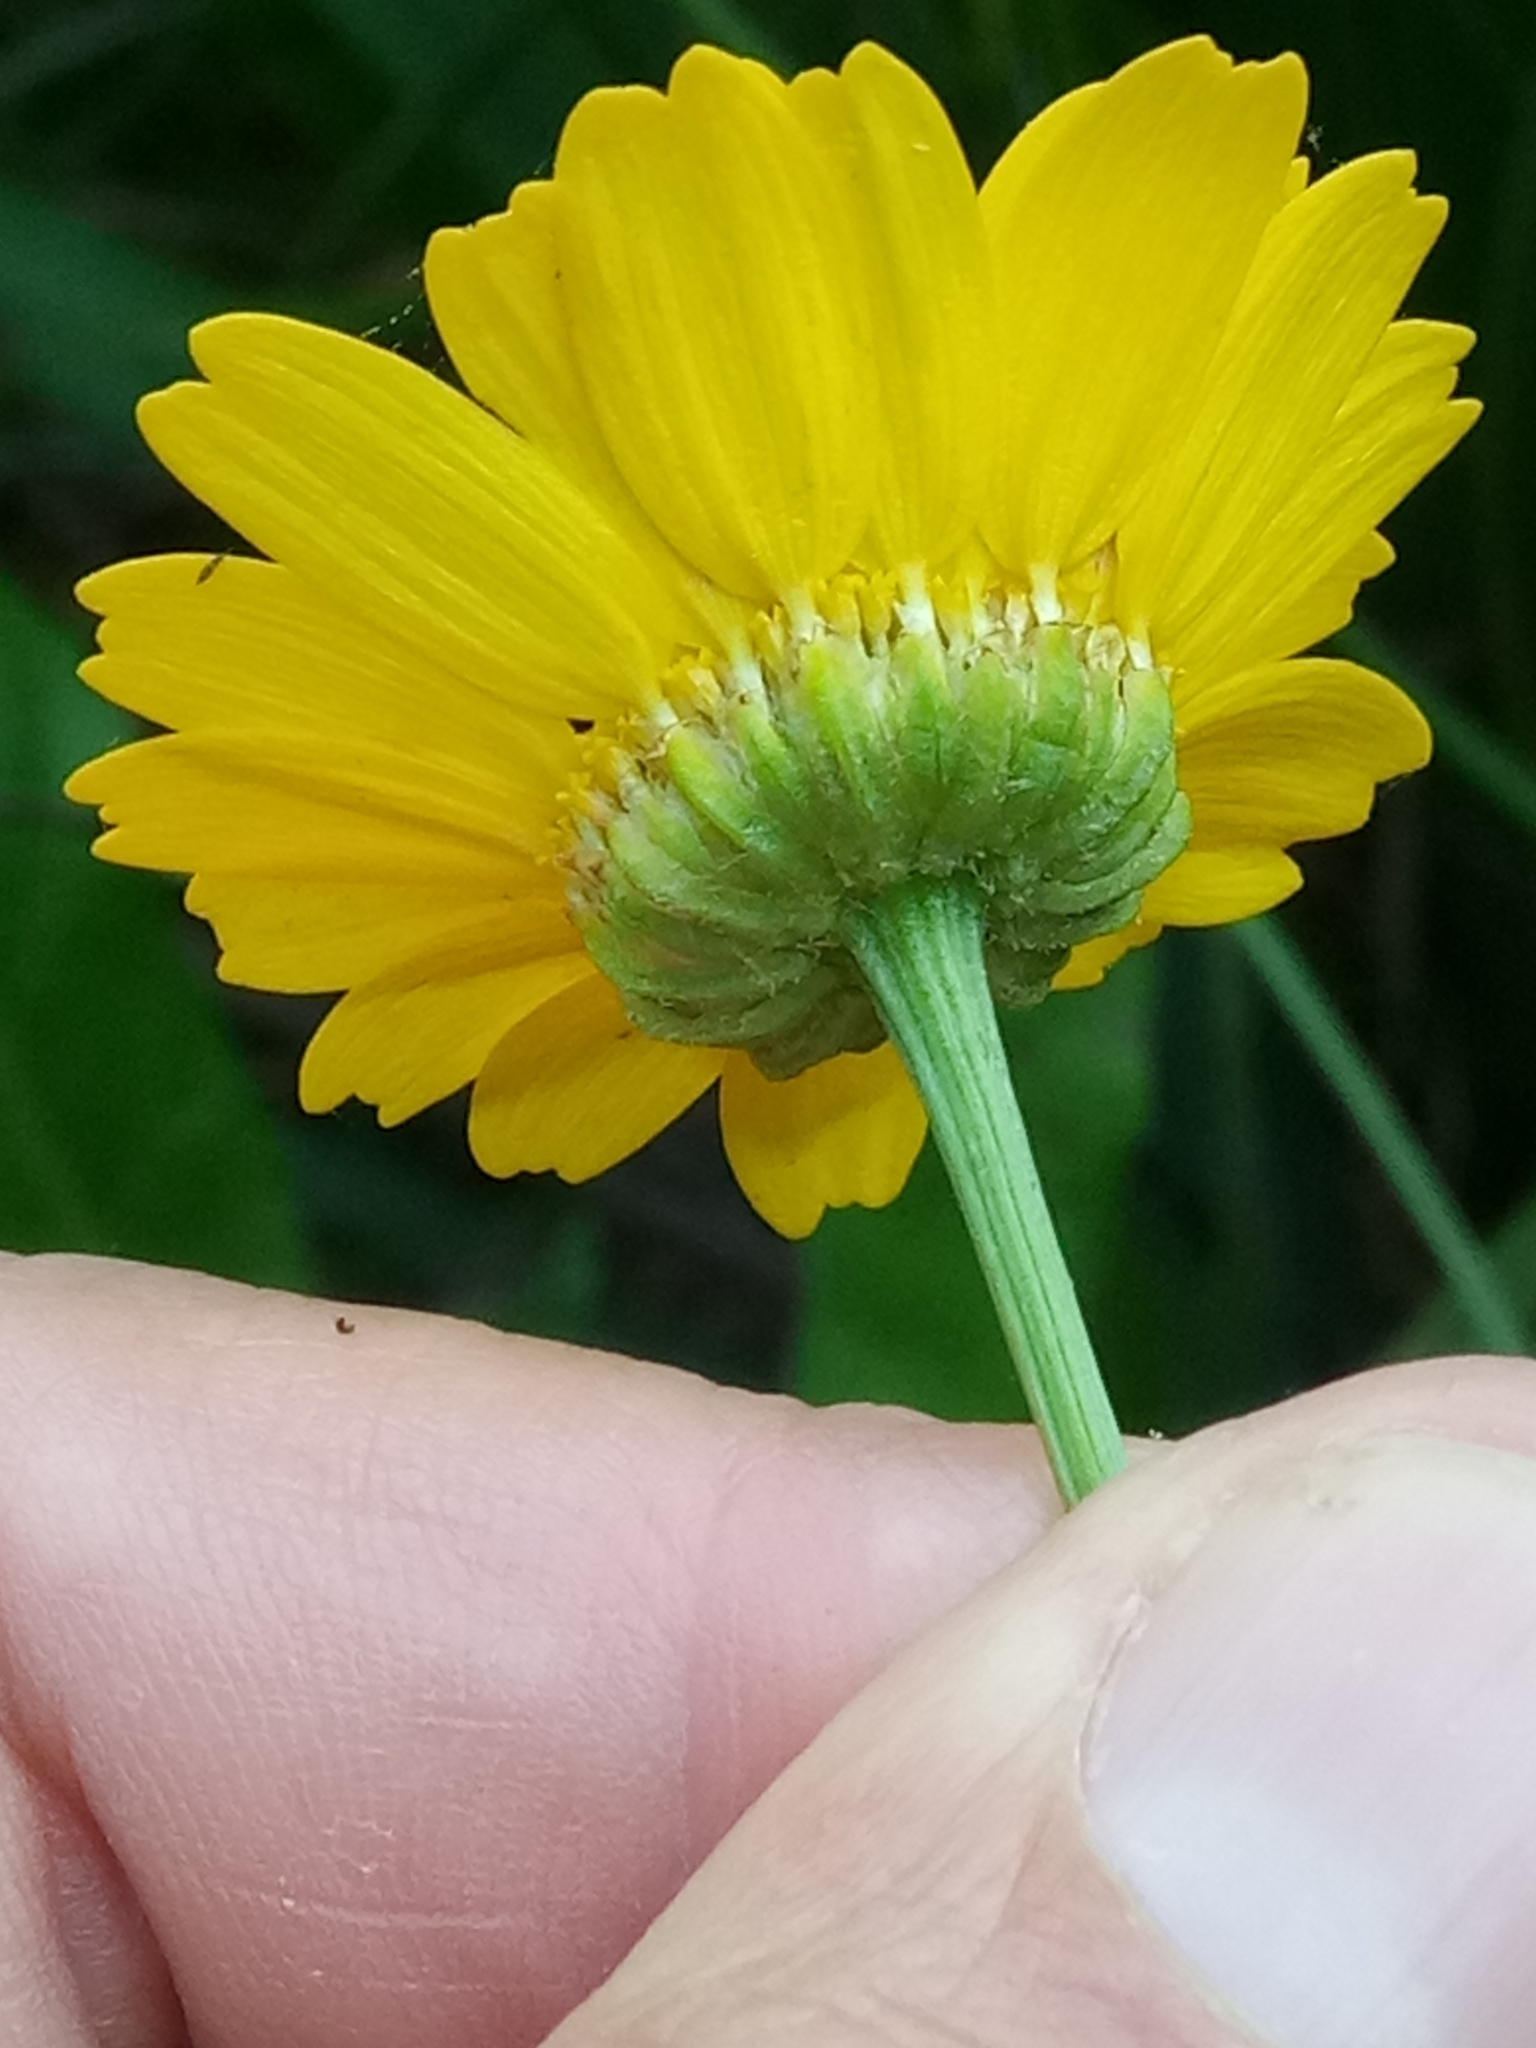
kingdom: Plantae
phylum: Tracheophyta
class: Magnoliopsida
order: Asterales
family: Asteraceae
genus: Coleostephus
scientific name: Coleostephus myconis
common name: Mediterranean marigold
